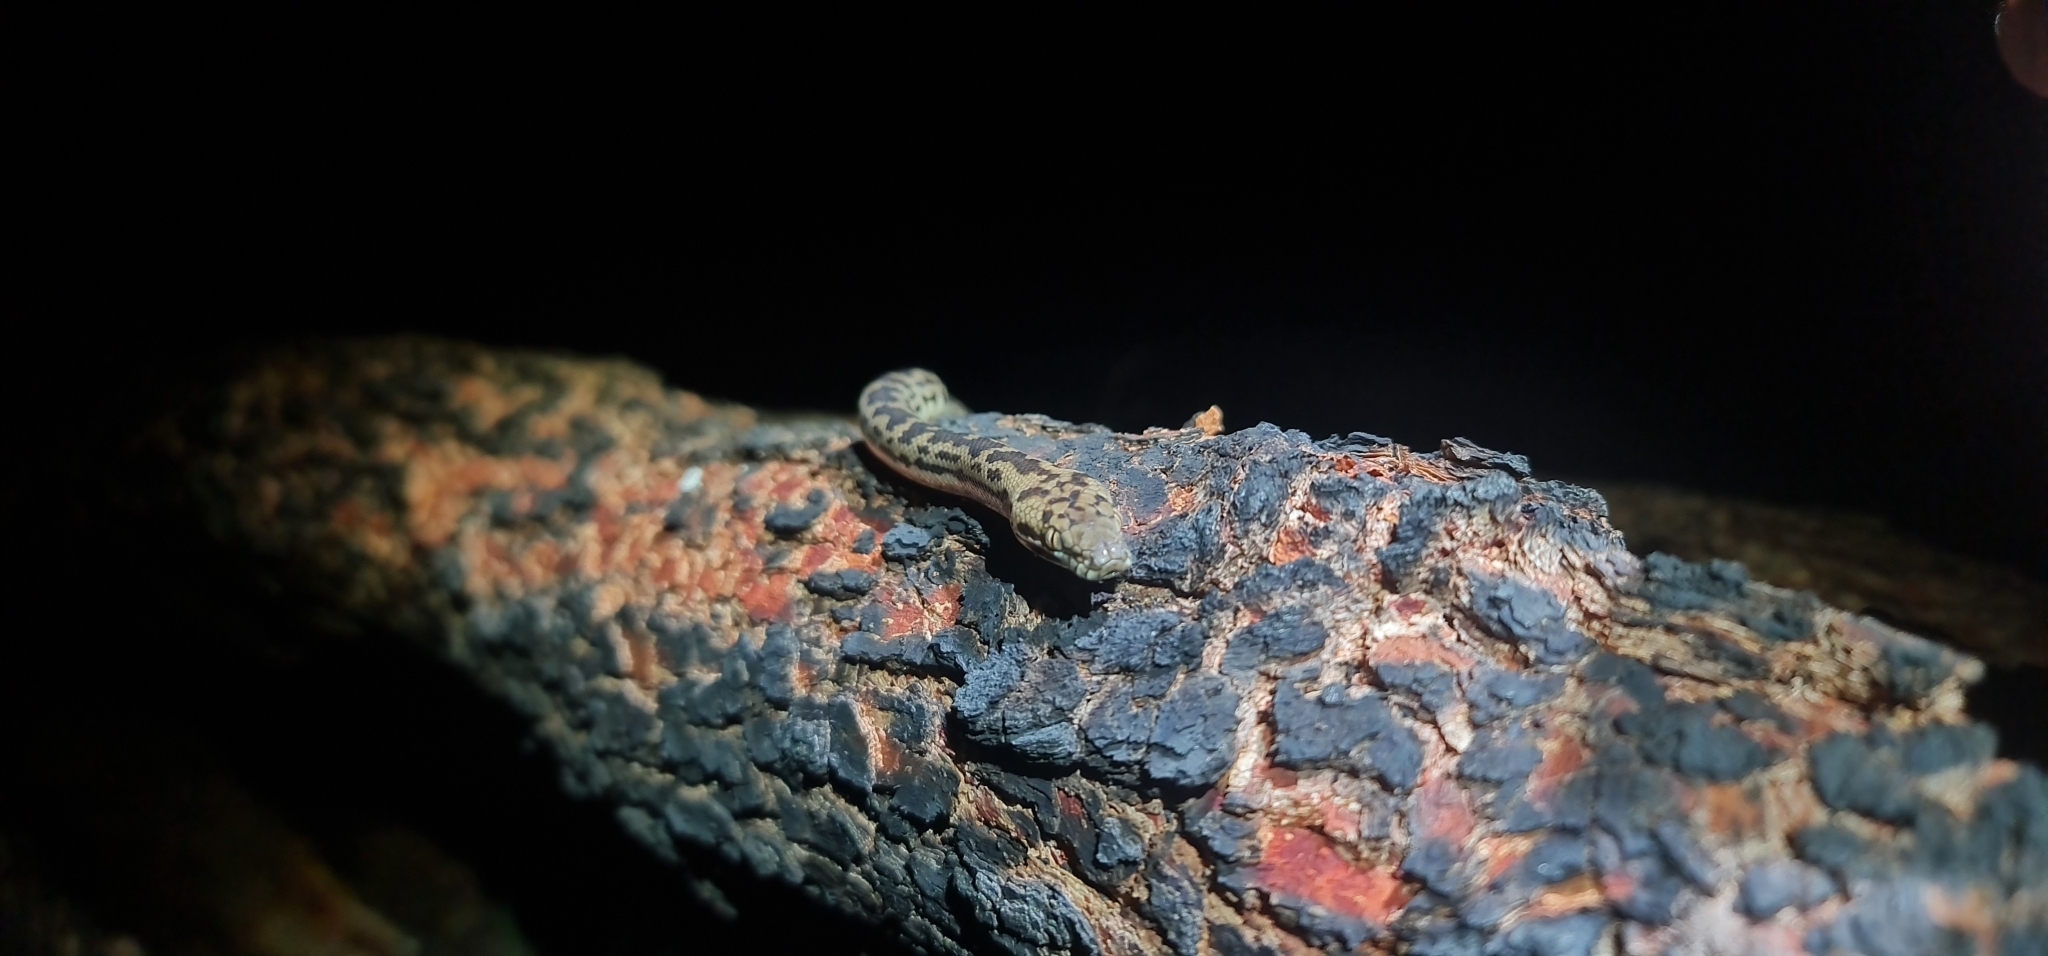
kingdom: Animalia
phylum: Chordata
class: Squamata
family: Pythonidae
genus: Antaresia
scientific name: Antaresia maculosa
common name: Eastern childrens python
